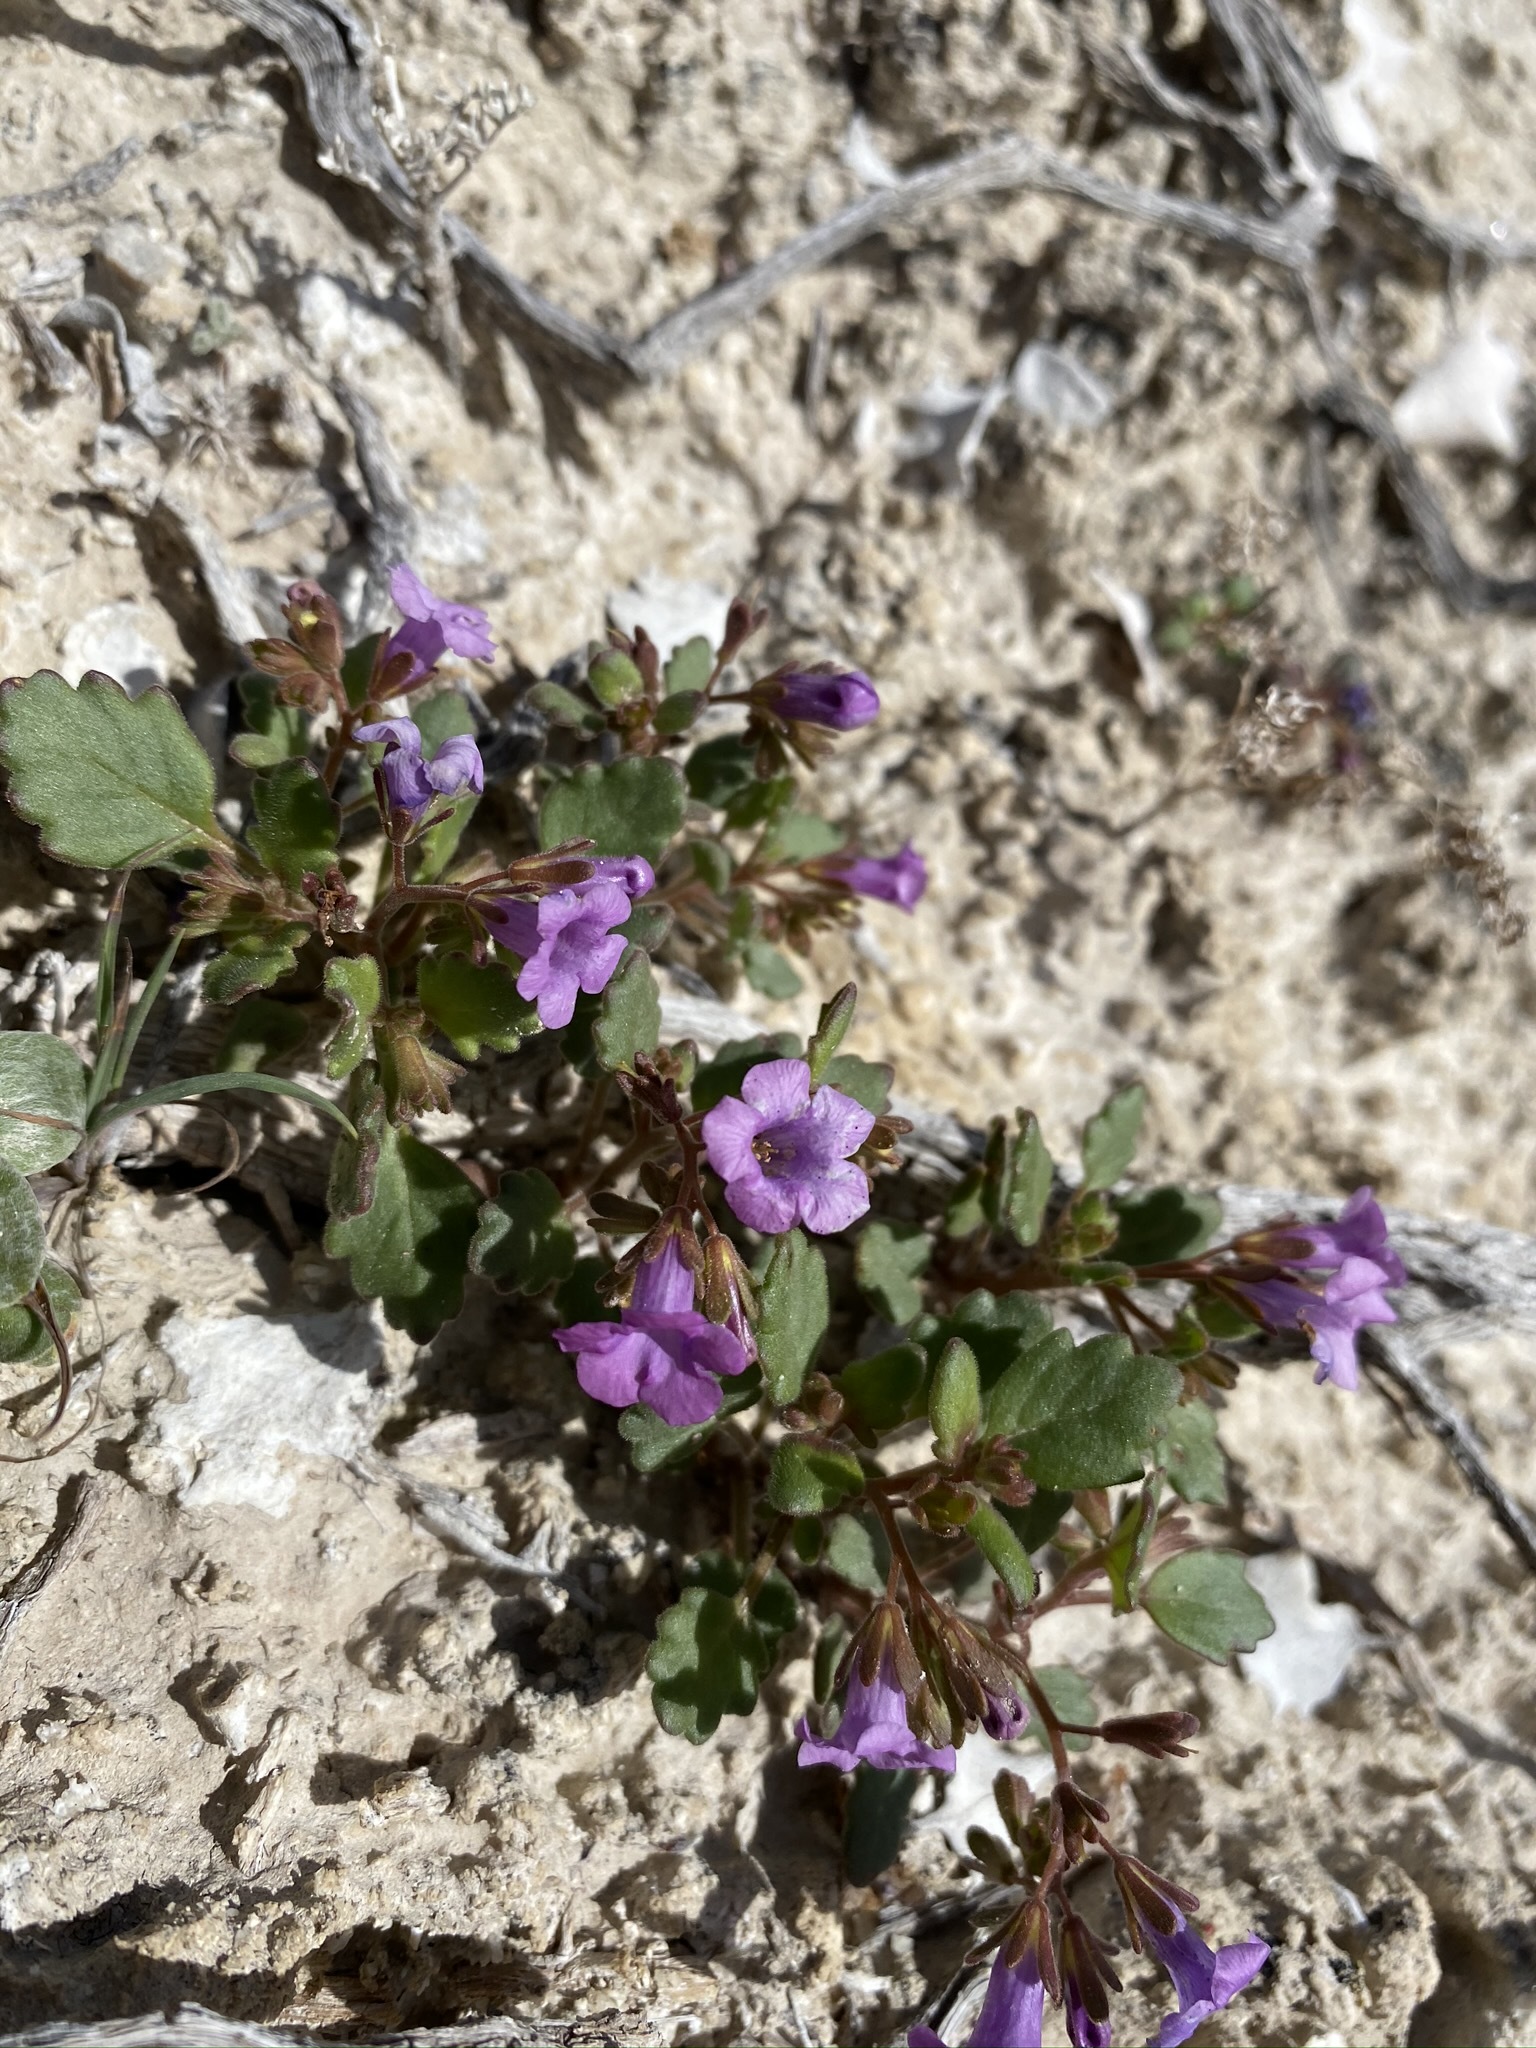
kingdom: Plantae
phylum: Tracheophyta
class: Magnoliopsida
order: Boraginales
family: Hydrophyllaceae
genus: Phacelia
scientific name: Phacelia pulchella
